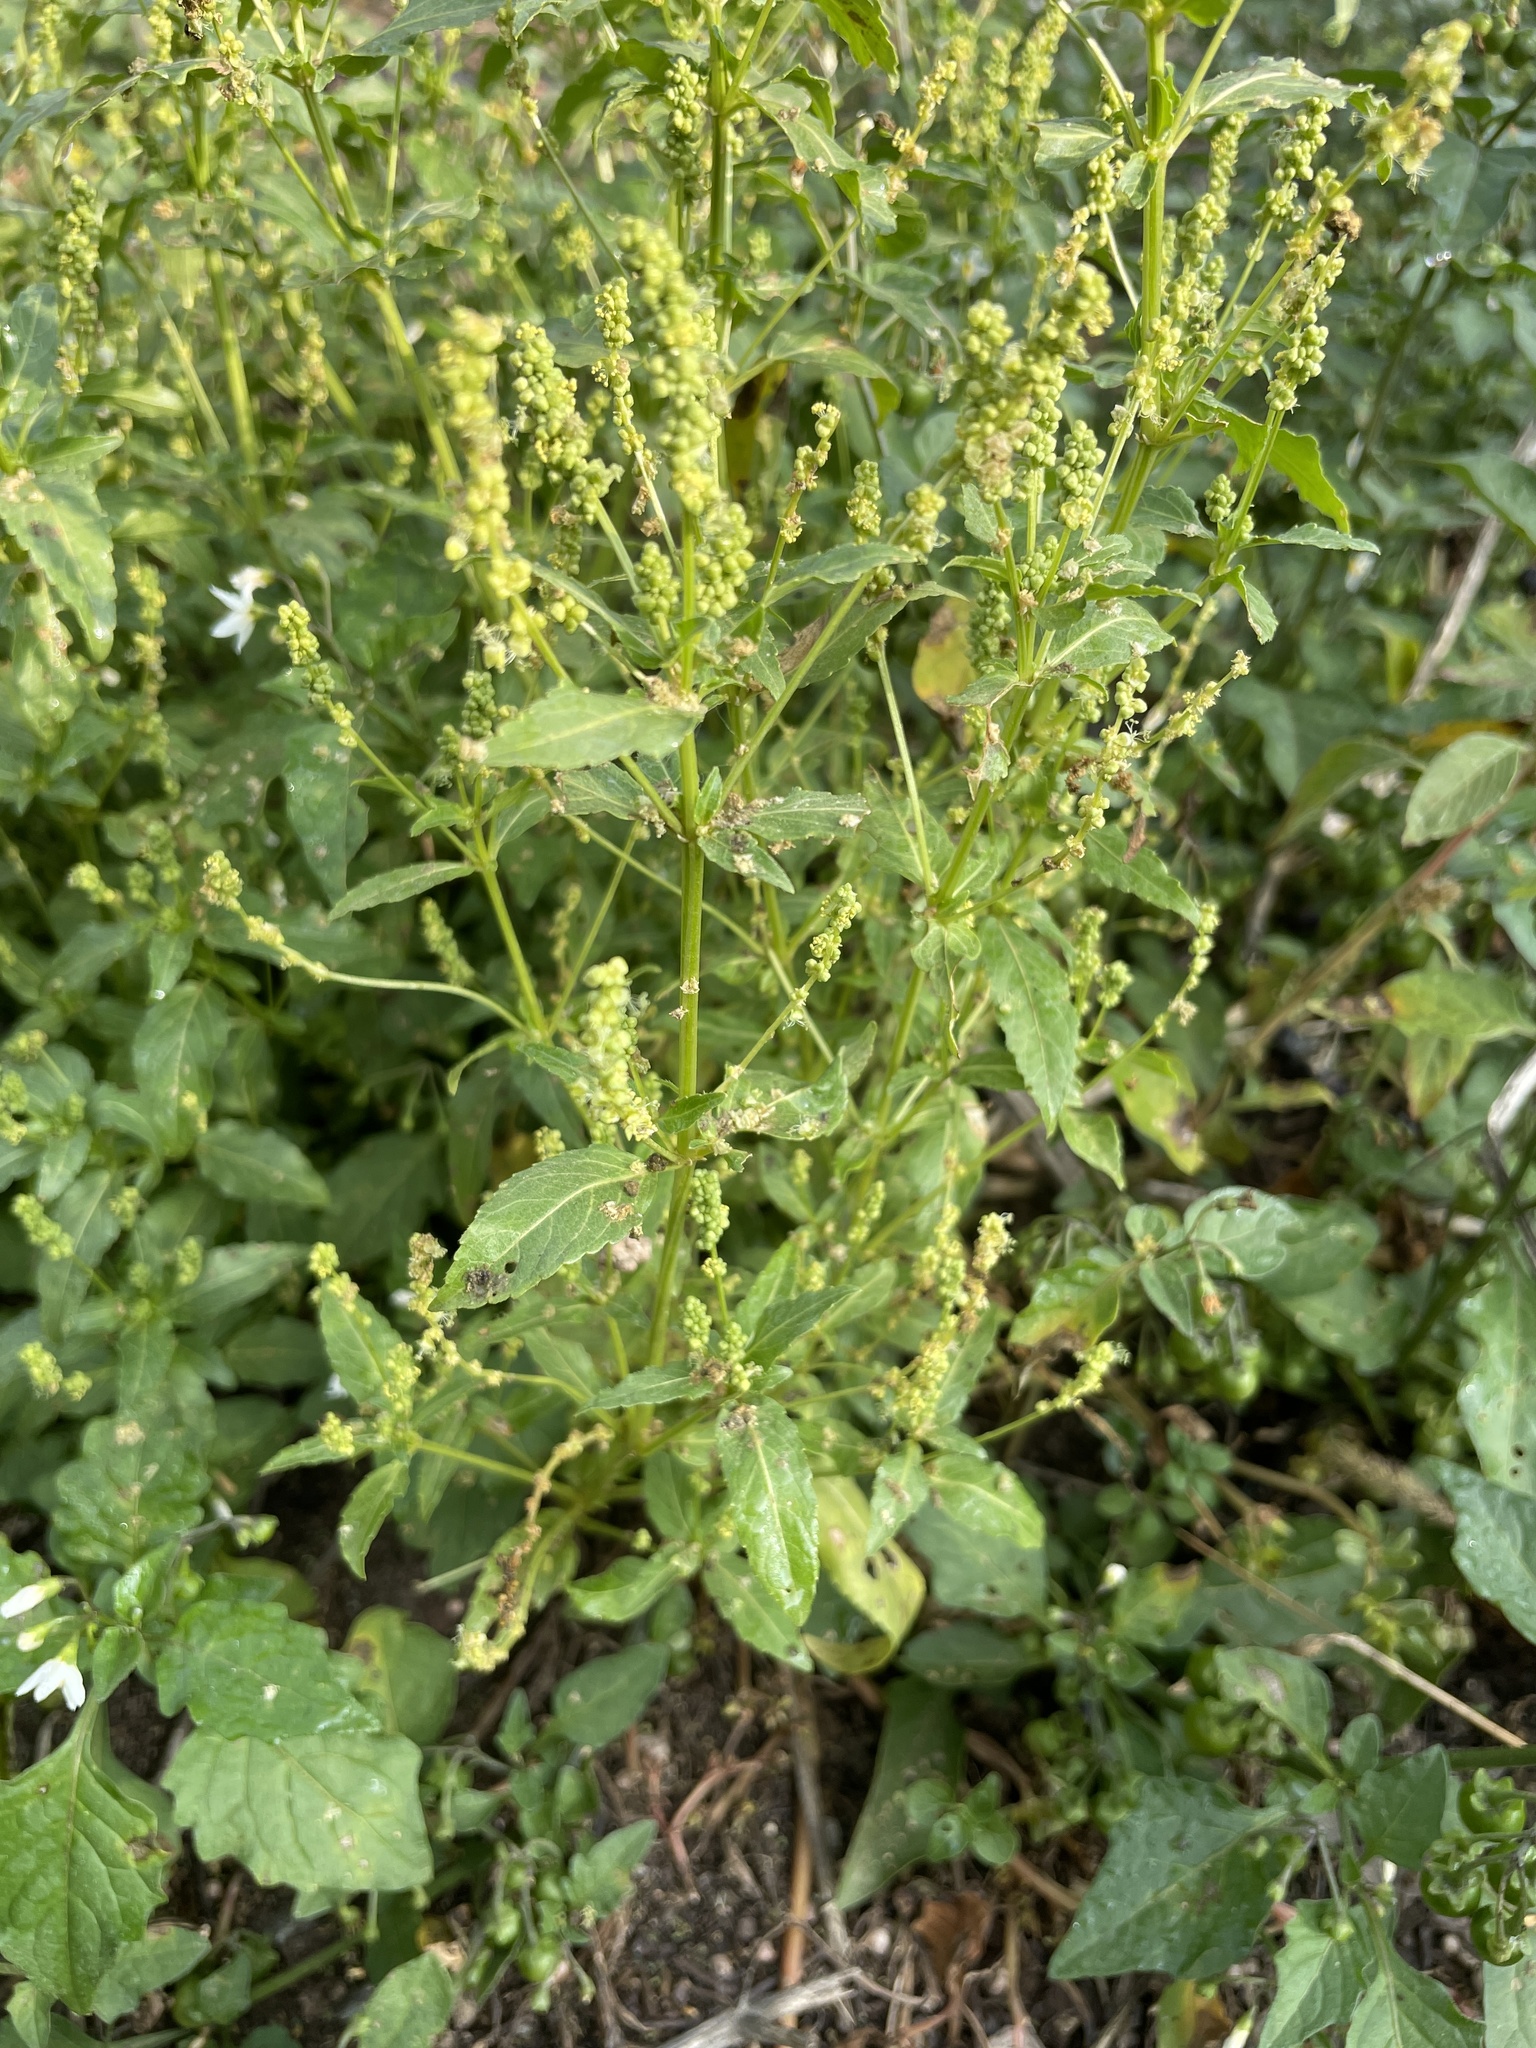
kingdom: Plantae
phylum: Tracheophyta
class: Magnoliopsida
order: Malpighiales
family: Euphorbiaceae
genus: Mercurialis
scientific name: Mercurialis annua
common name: Annual mercury
